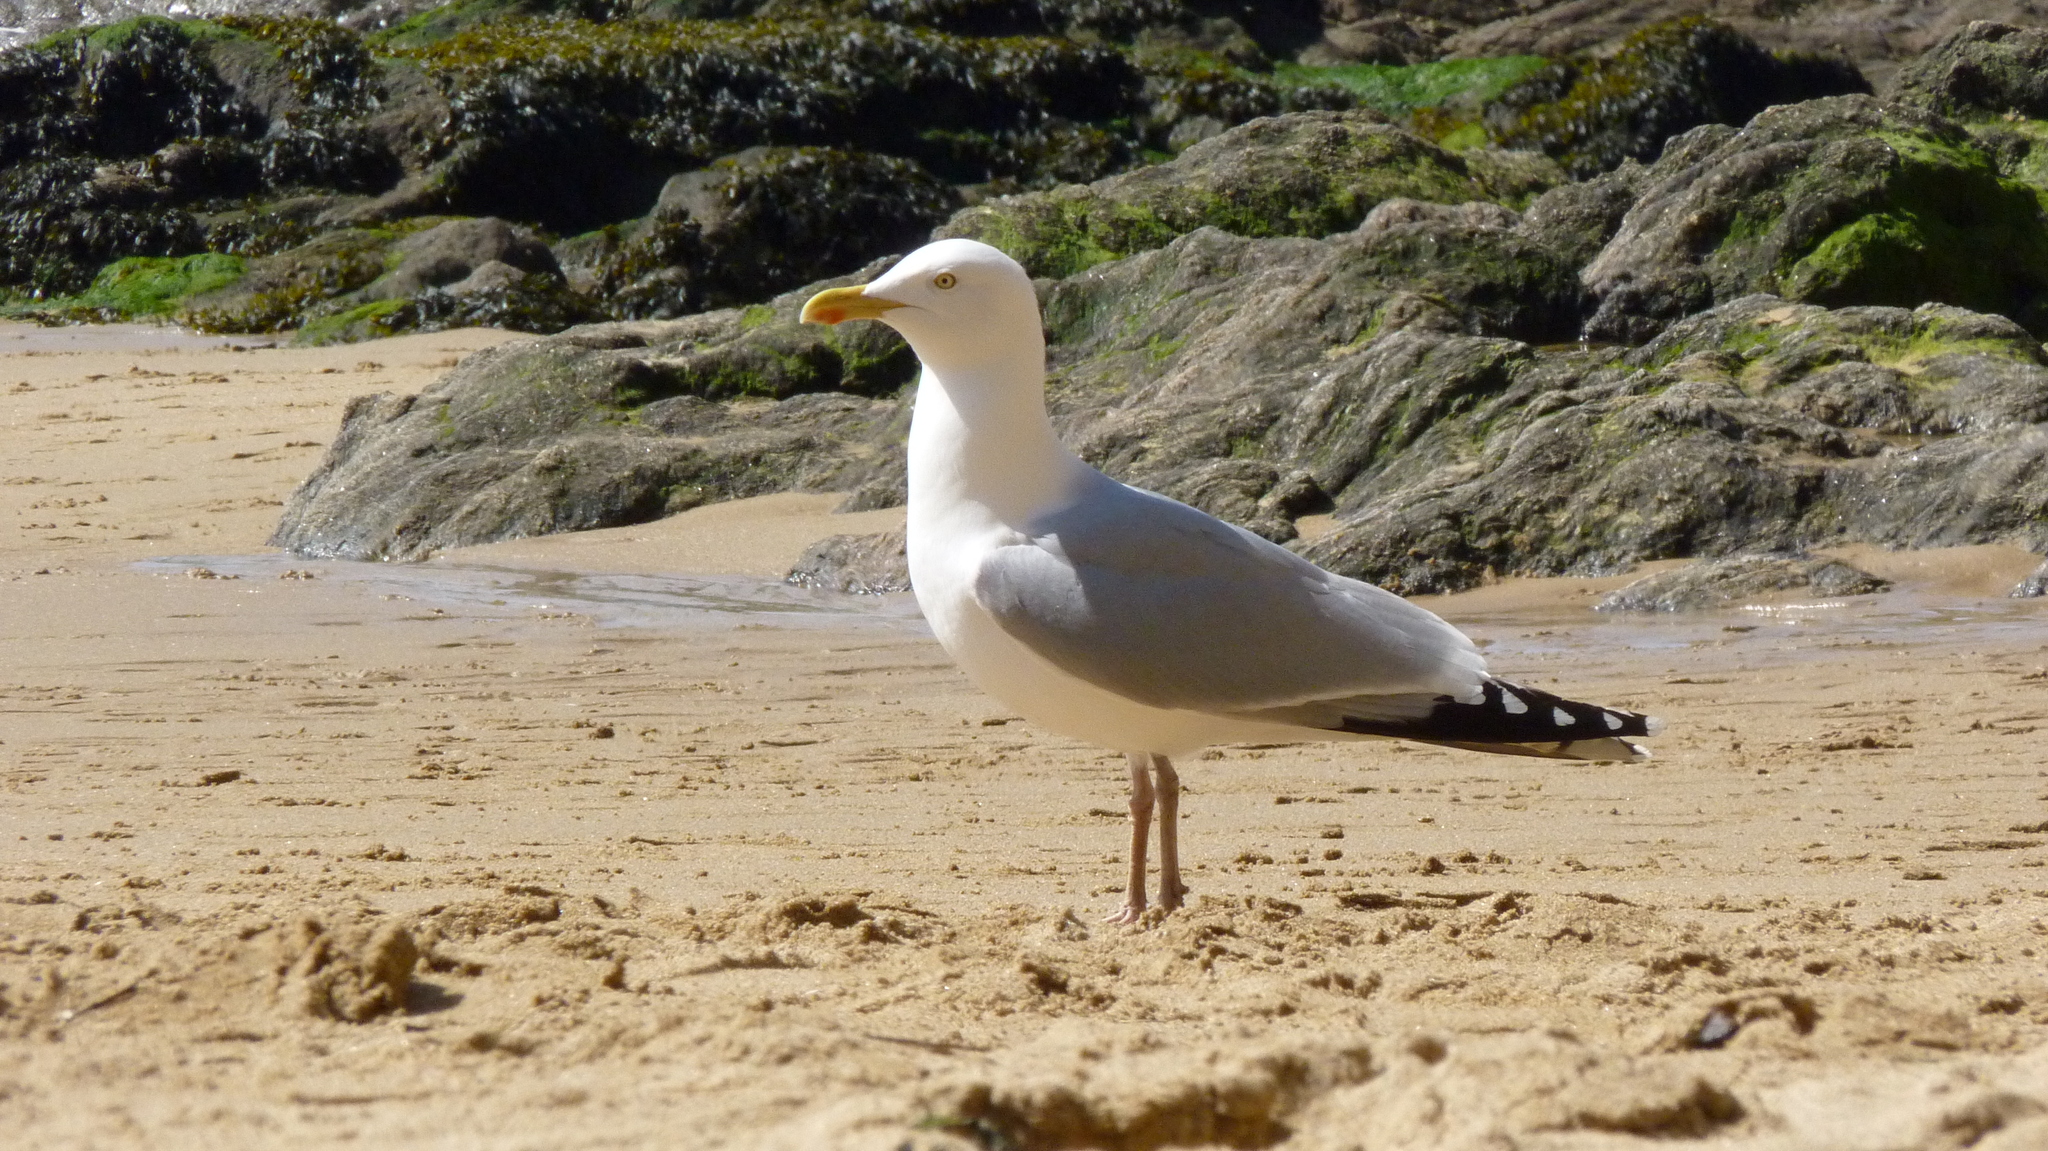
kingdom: Animalia
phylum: Chordata
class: Aves
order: Charadriiformes
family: Laridae
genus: Larus
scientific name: Larus argentatus
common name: Herring gull
